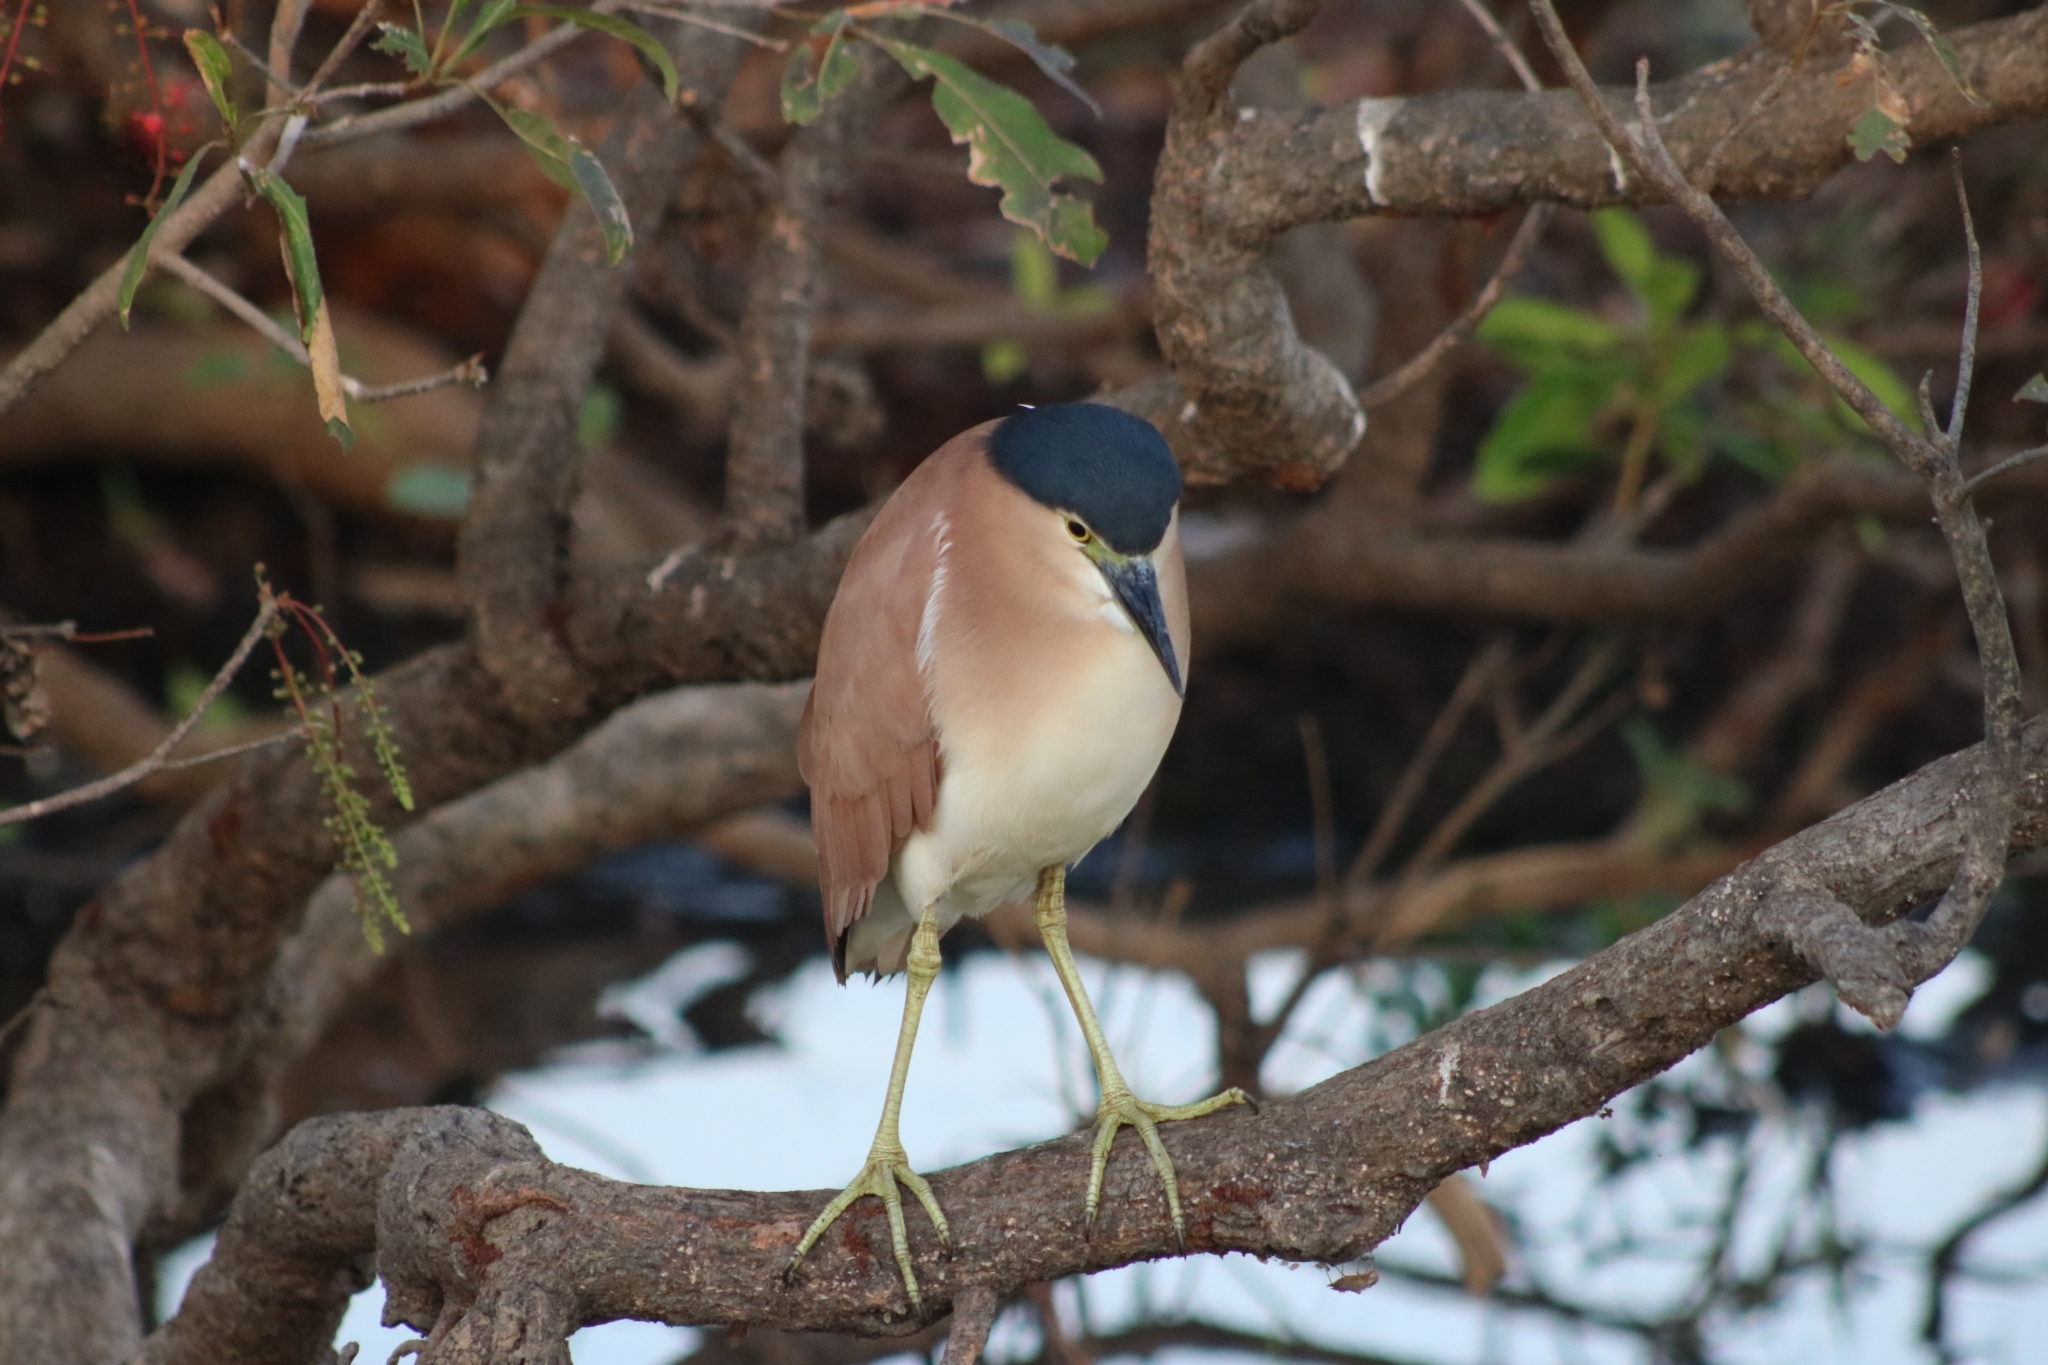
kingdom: Animalia
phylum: Chordata
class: Aves
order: Pelecaniformes
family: Ardeidae
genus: Nycticorax
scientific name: Nycticorax caledonicus
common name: Rufous night-heron
